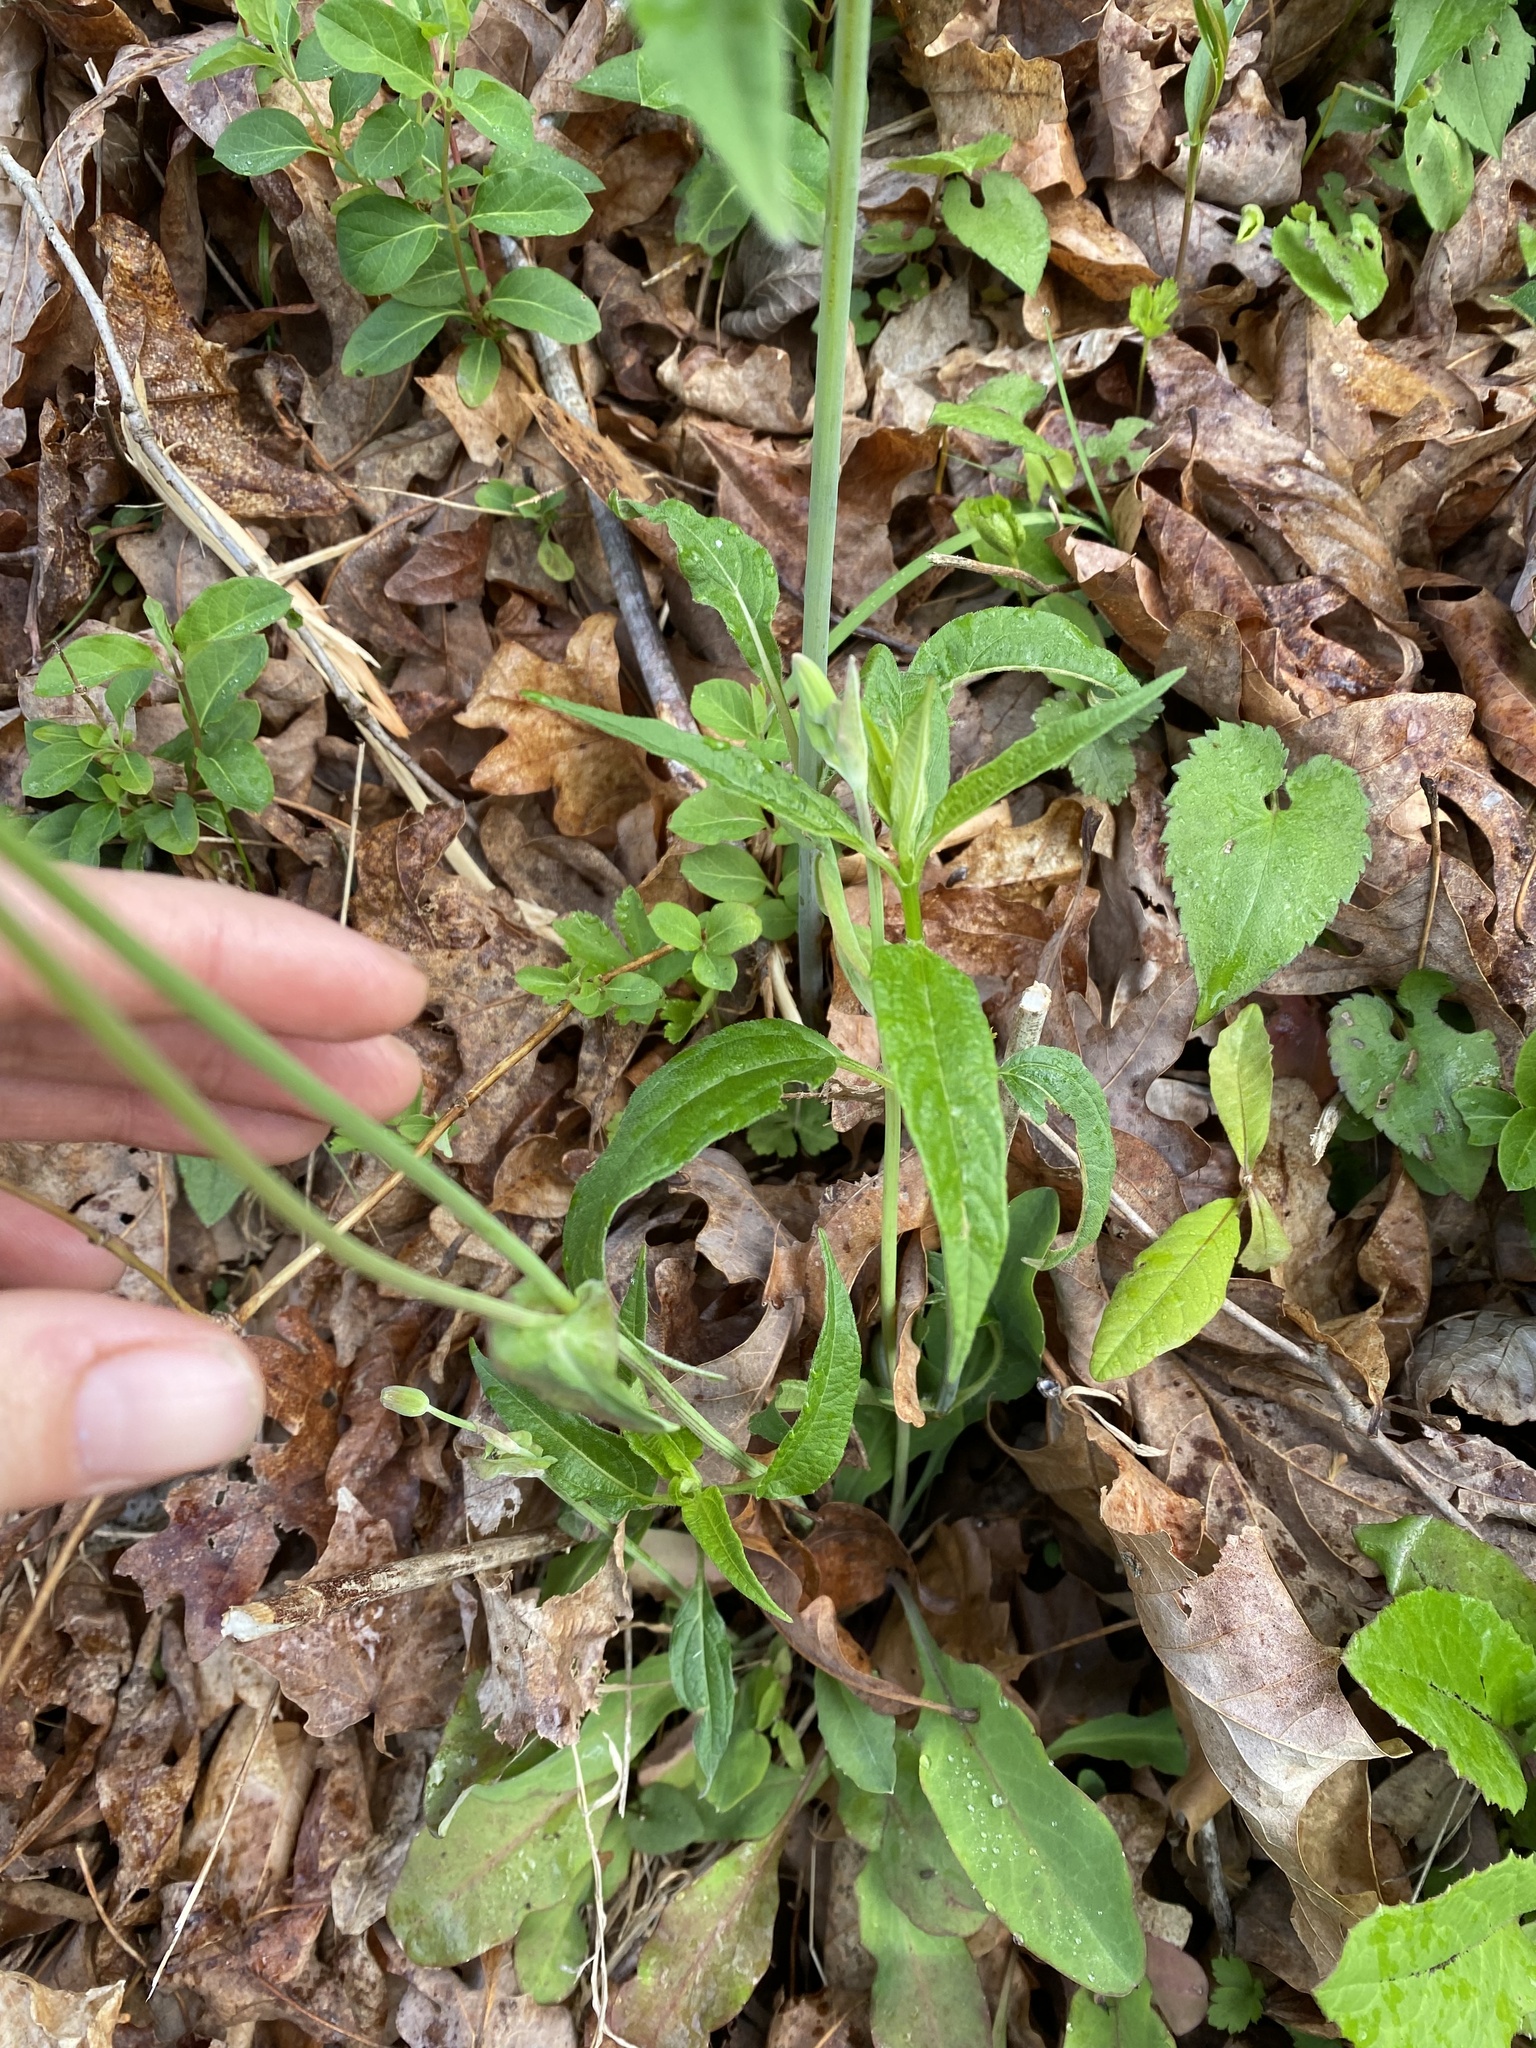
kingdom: Plantae
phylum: Tracheophyta
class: Magnoliopsida
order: Asterales
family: Asteraceae
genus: Krigia
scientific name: Krigia biflora
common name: Orange dwarf-dandelion
